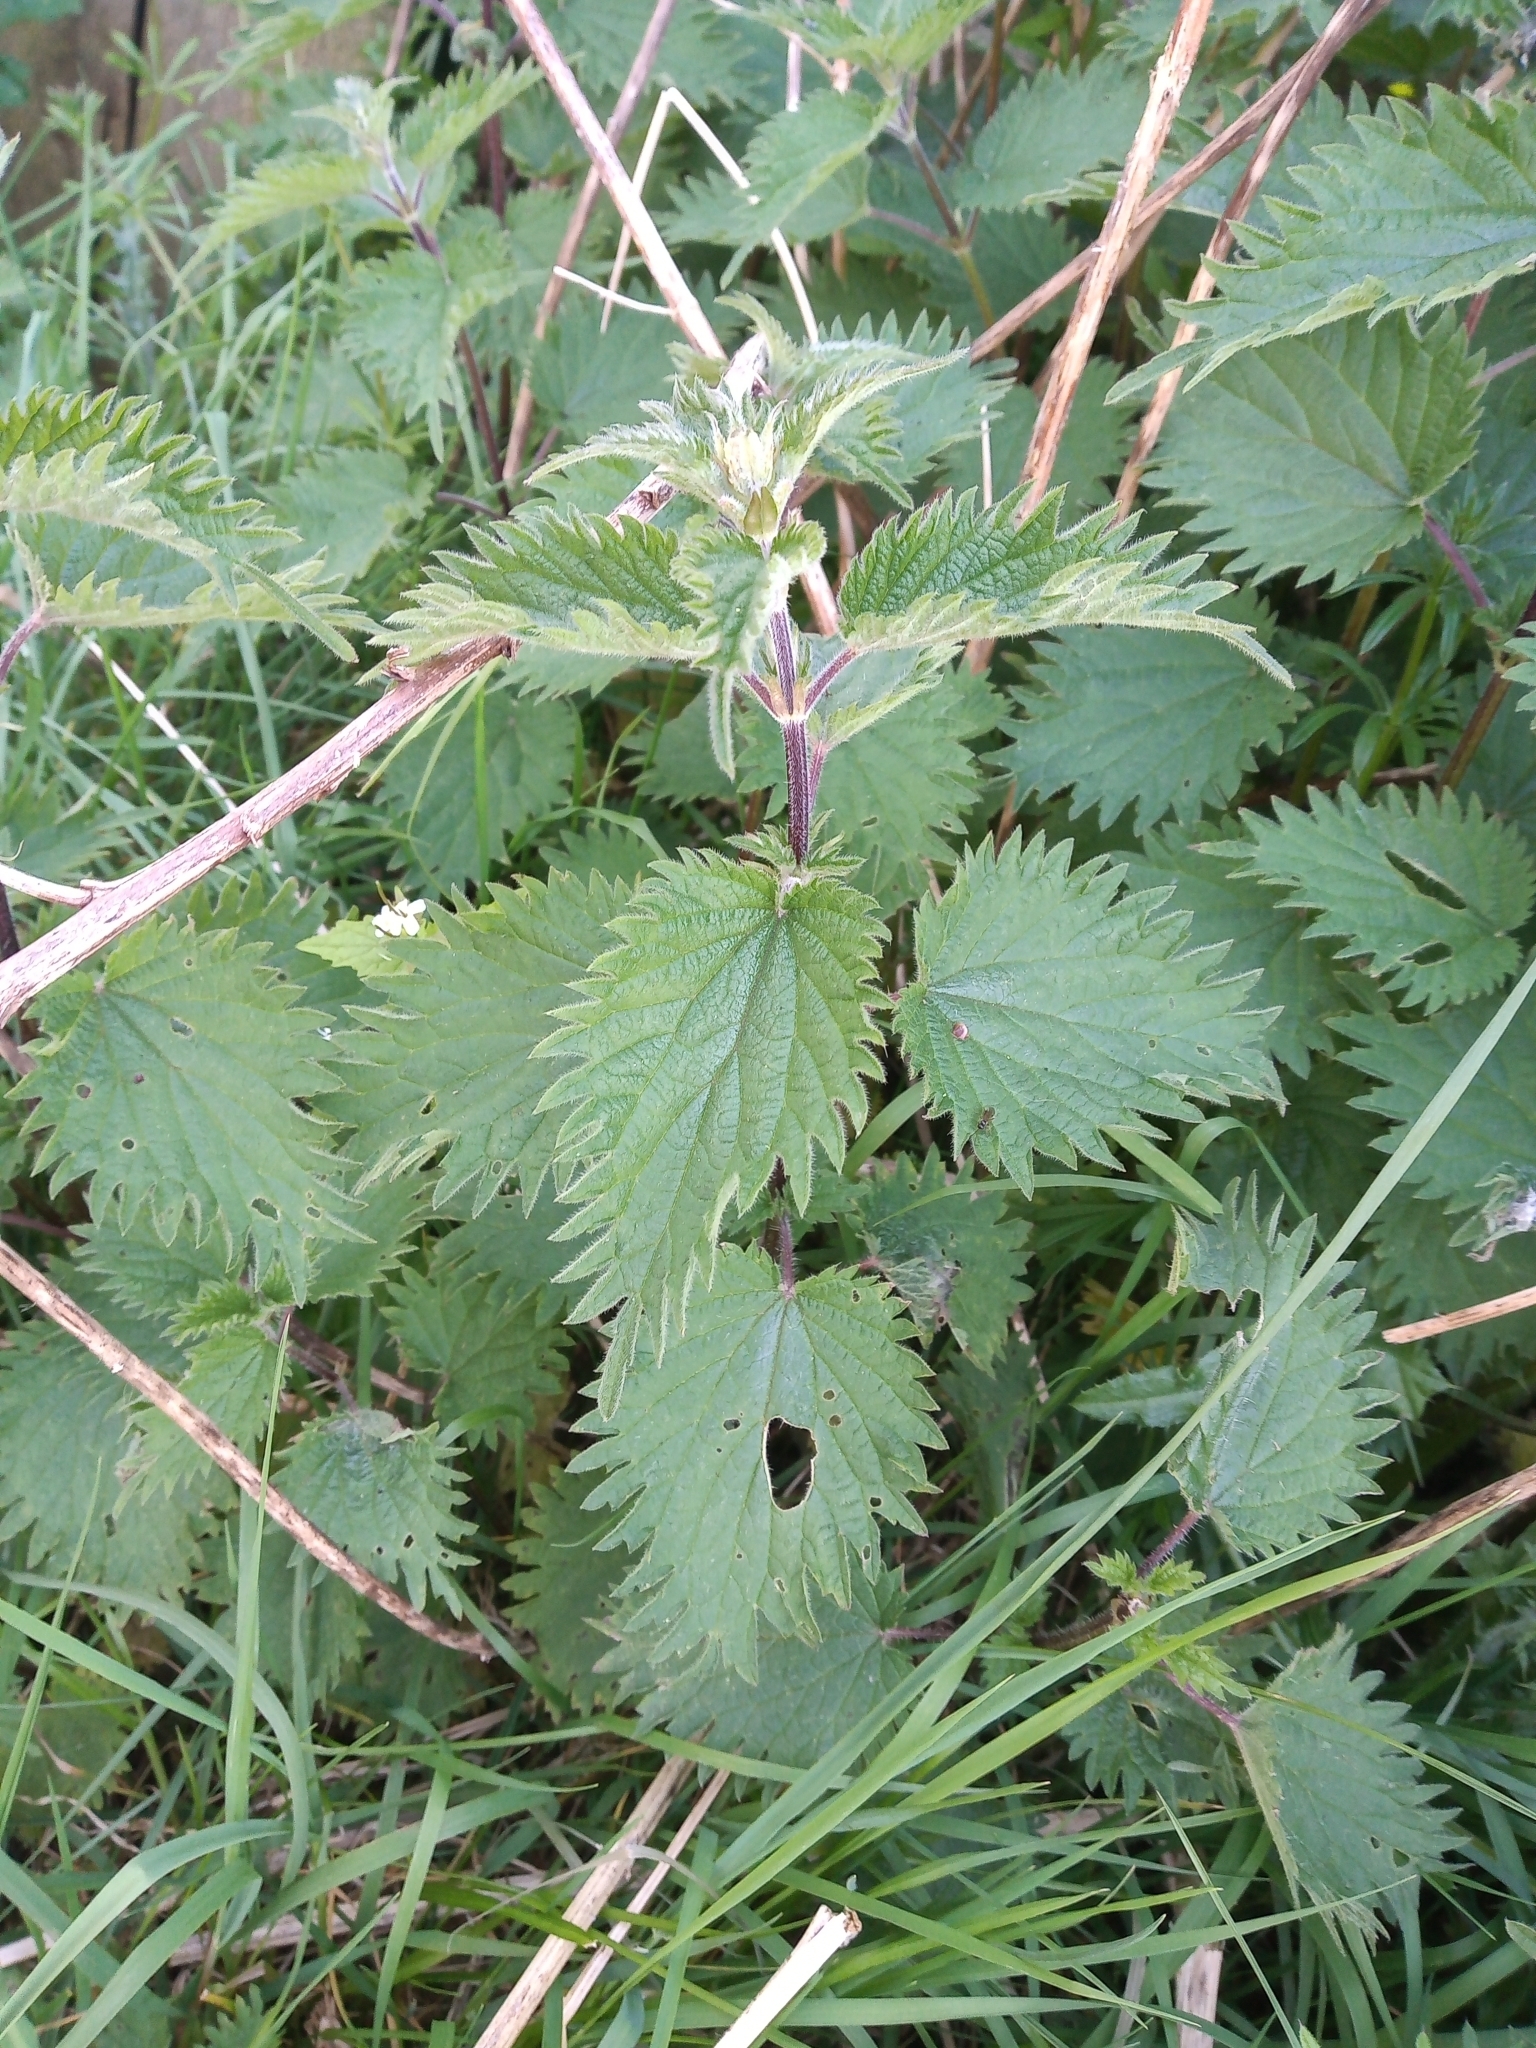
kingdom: Plantae
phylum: Tracheophyta
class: Magnoliopsida
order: Rosales
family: Urticaceae
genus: Urtica
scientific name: Urtica dioica
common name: Common nettle
